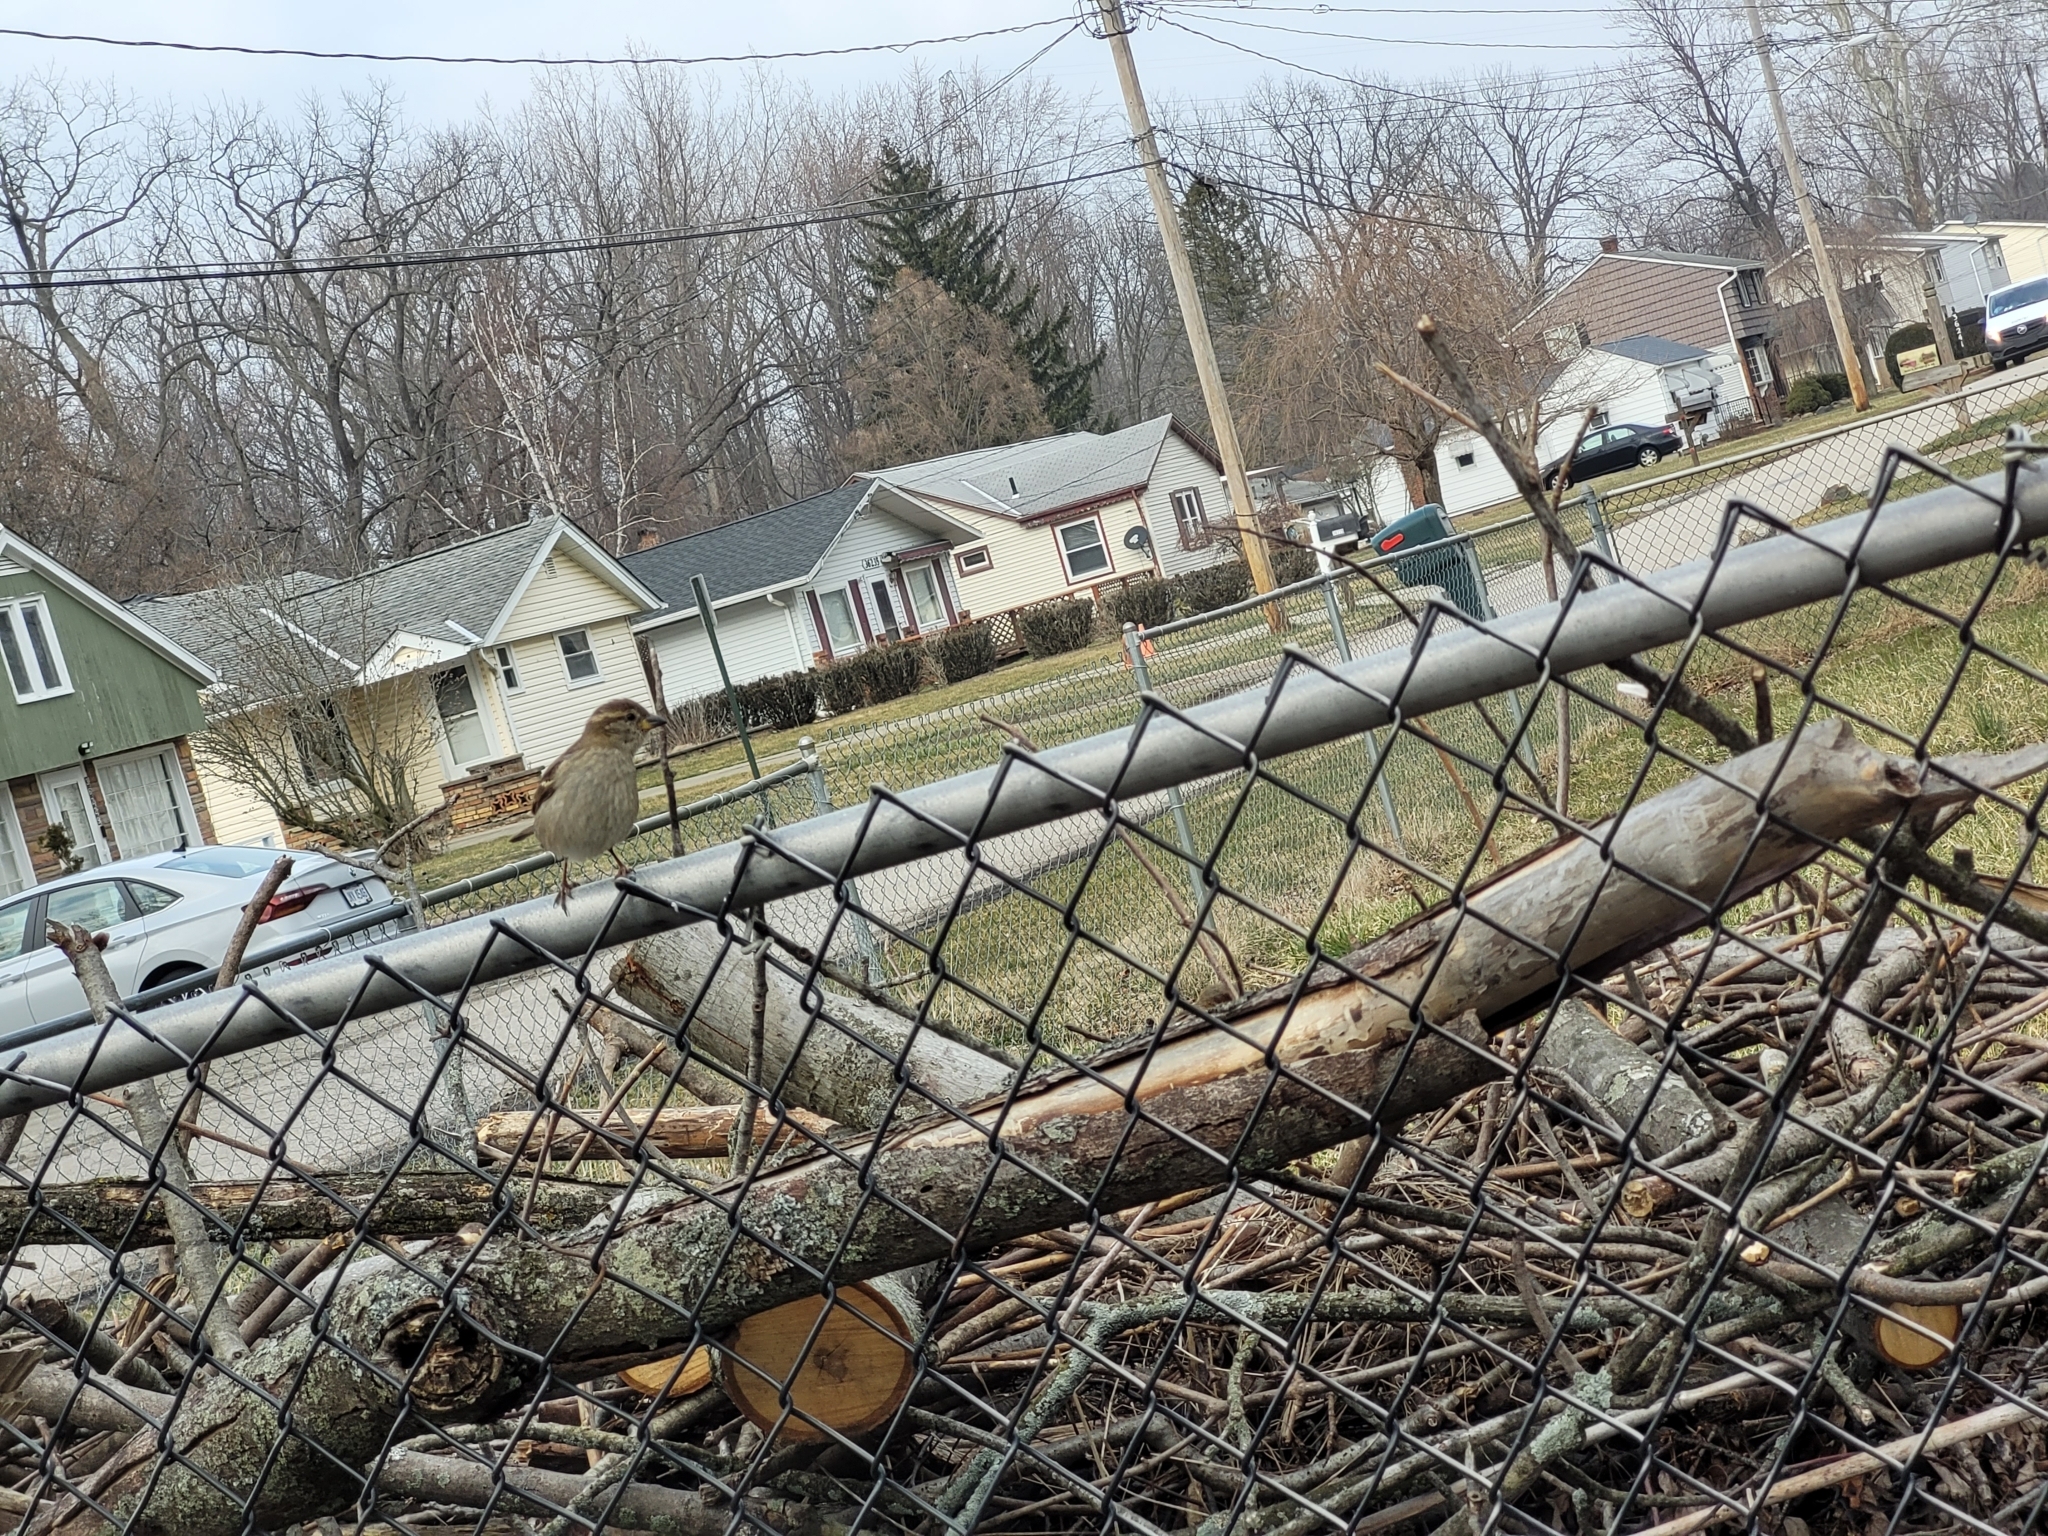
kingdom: Animalia
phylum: Chordata
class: Aves
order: Passeriformes
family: Passeridae
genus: Passer
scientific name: Passer domesticus
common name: House sparrow
